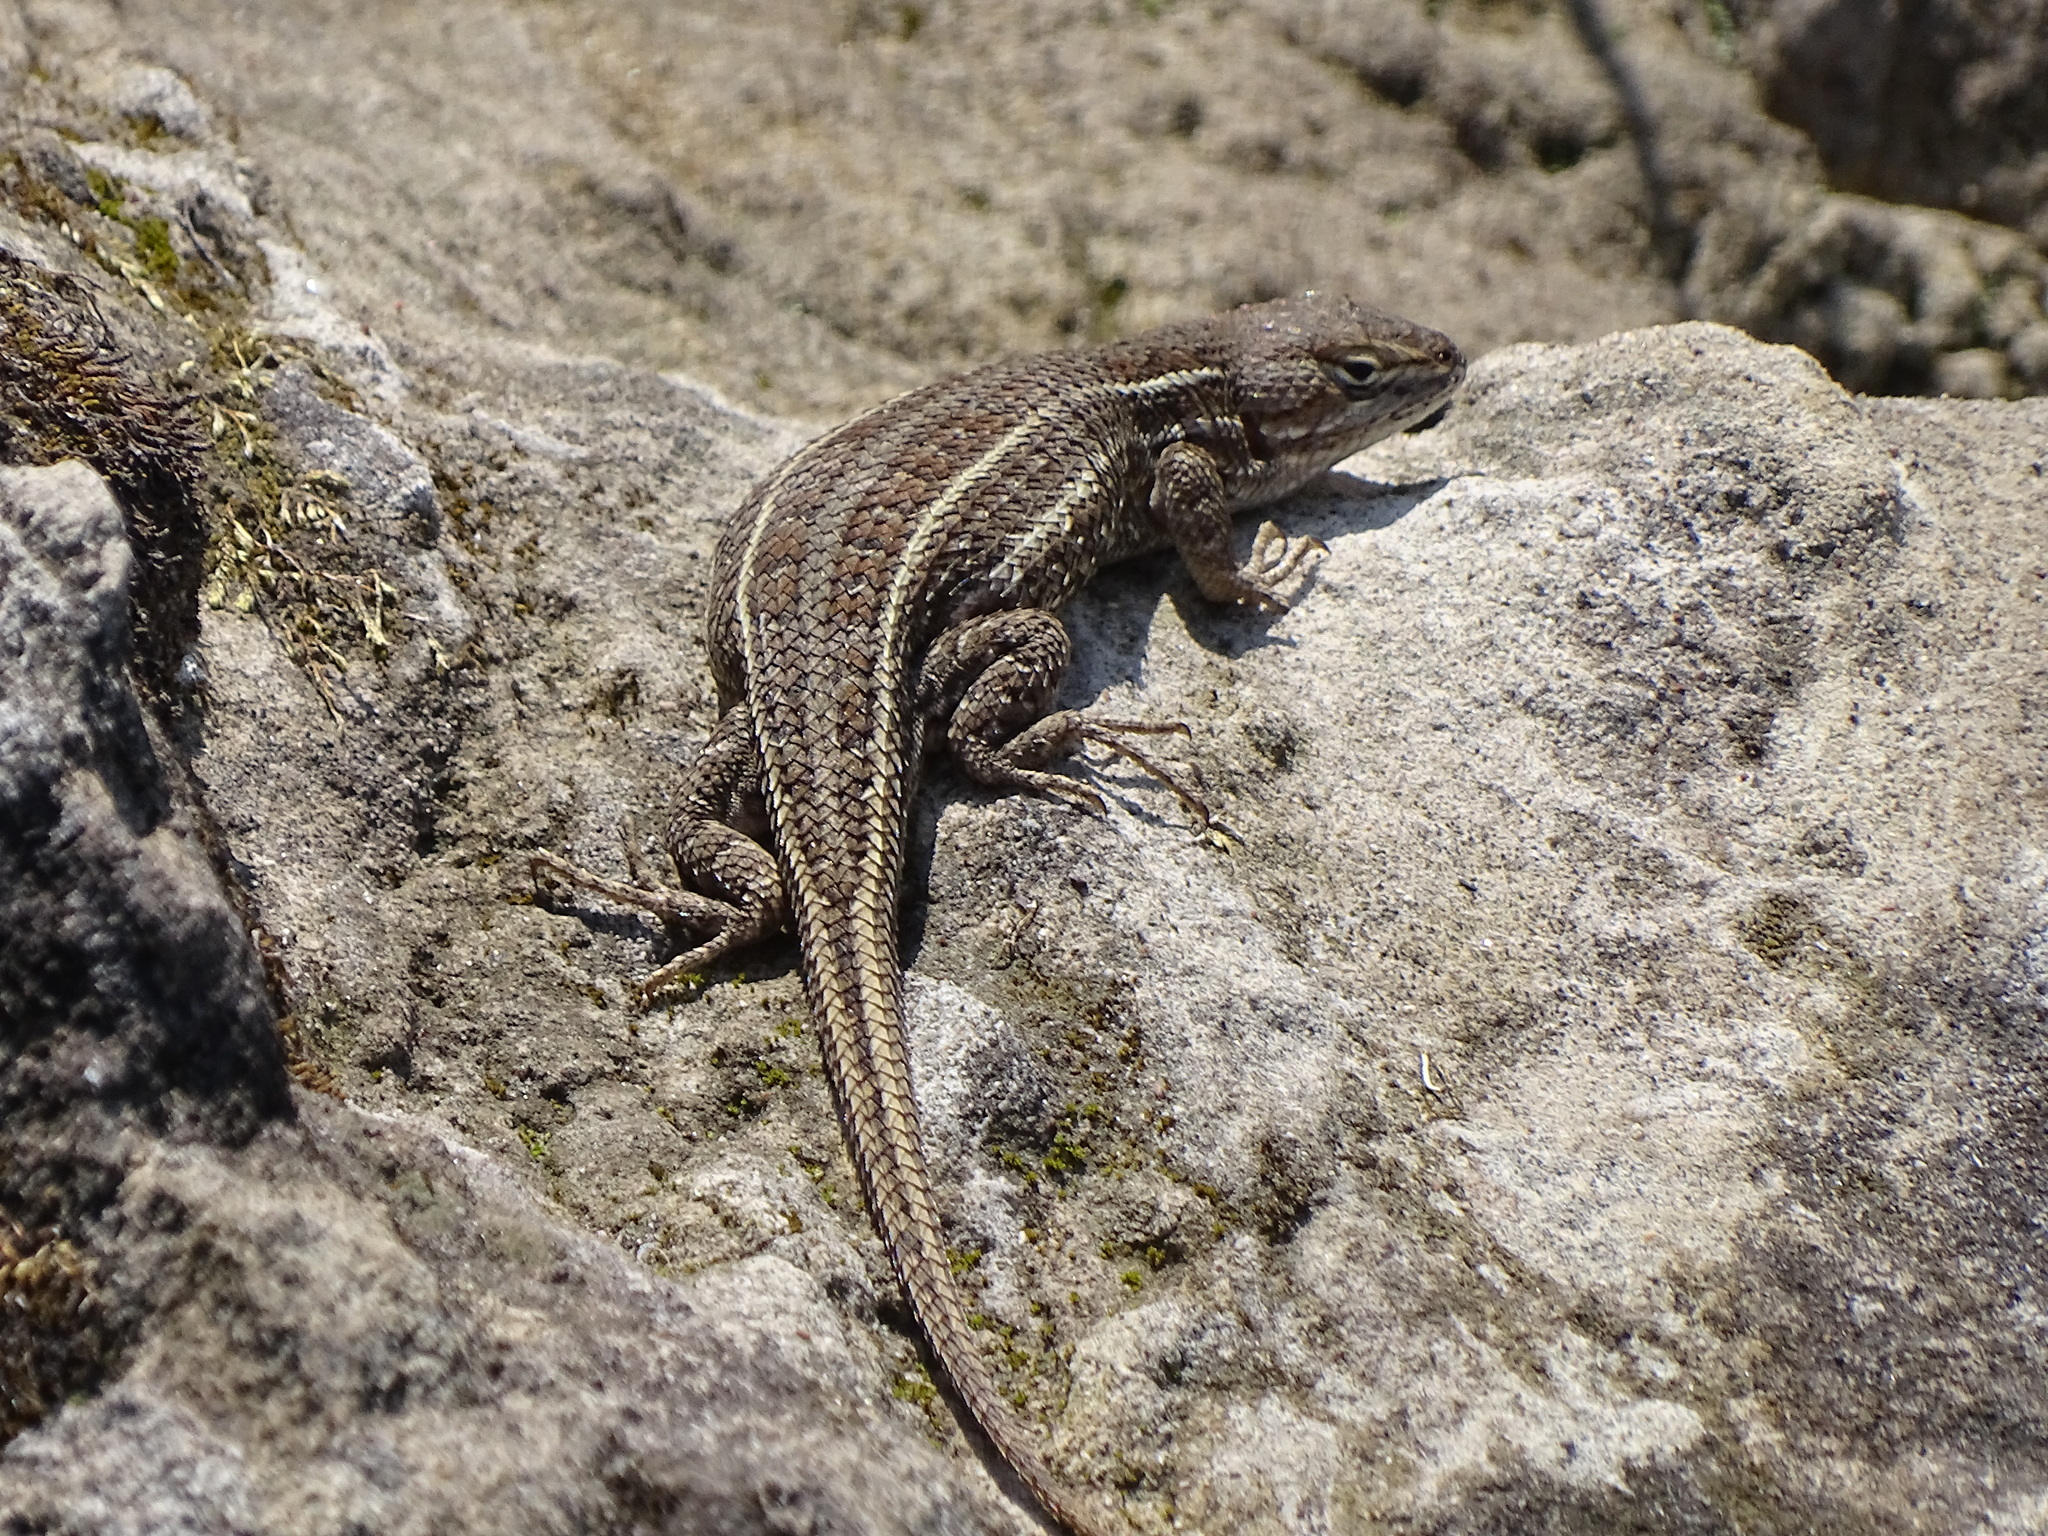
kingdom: Animalia
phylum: Chordata
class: Squamata
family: Phrynosomatidae
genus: Sceloporus
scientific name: Sceloporus subniger
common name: Plateau bunchgrass lizard
